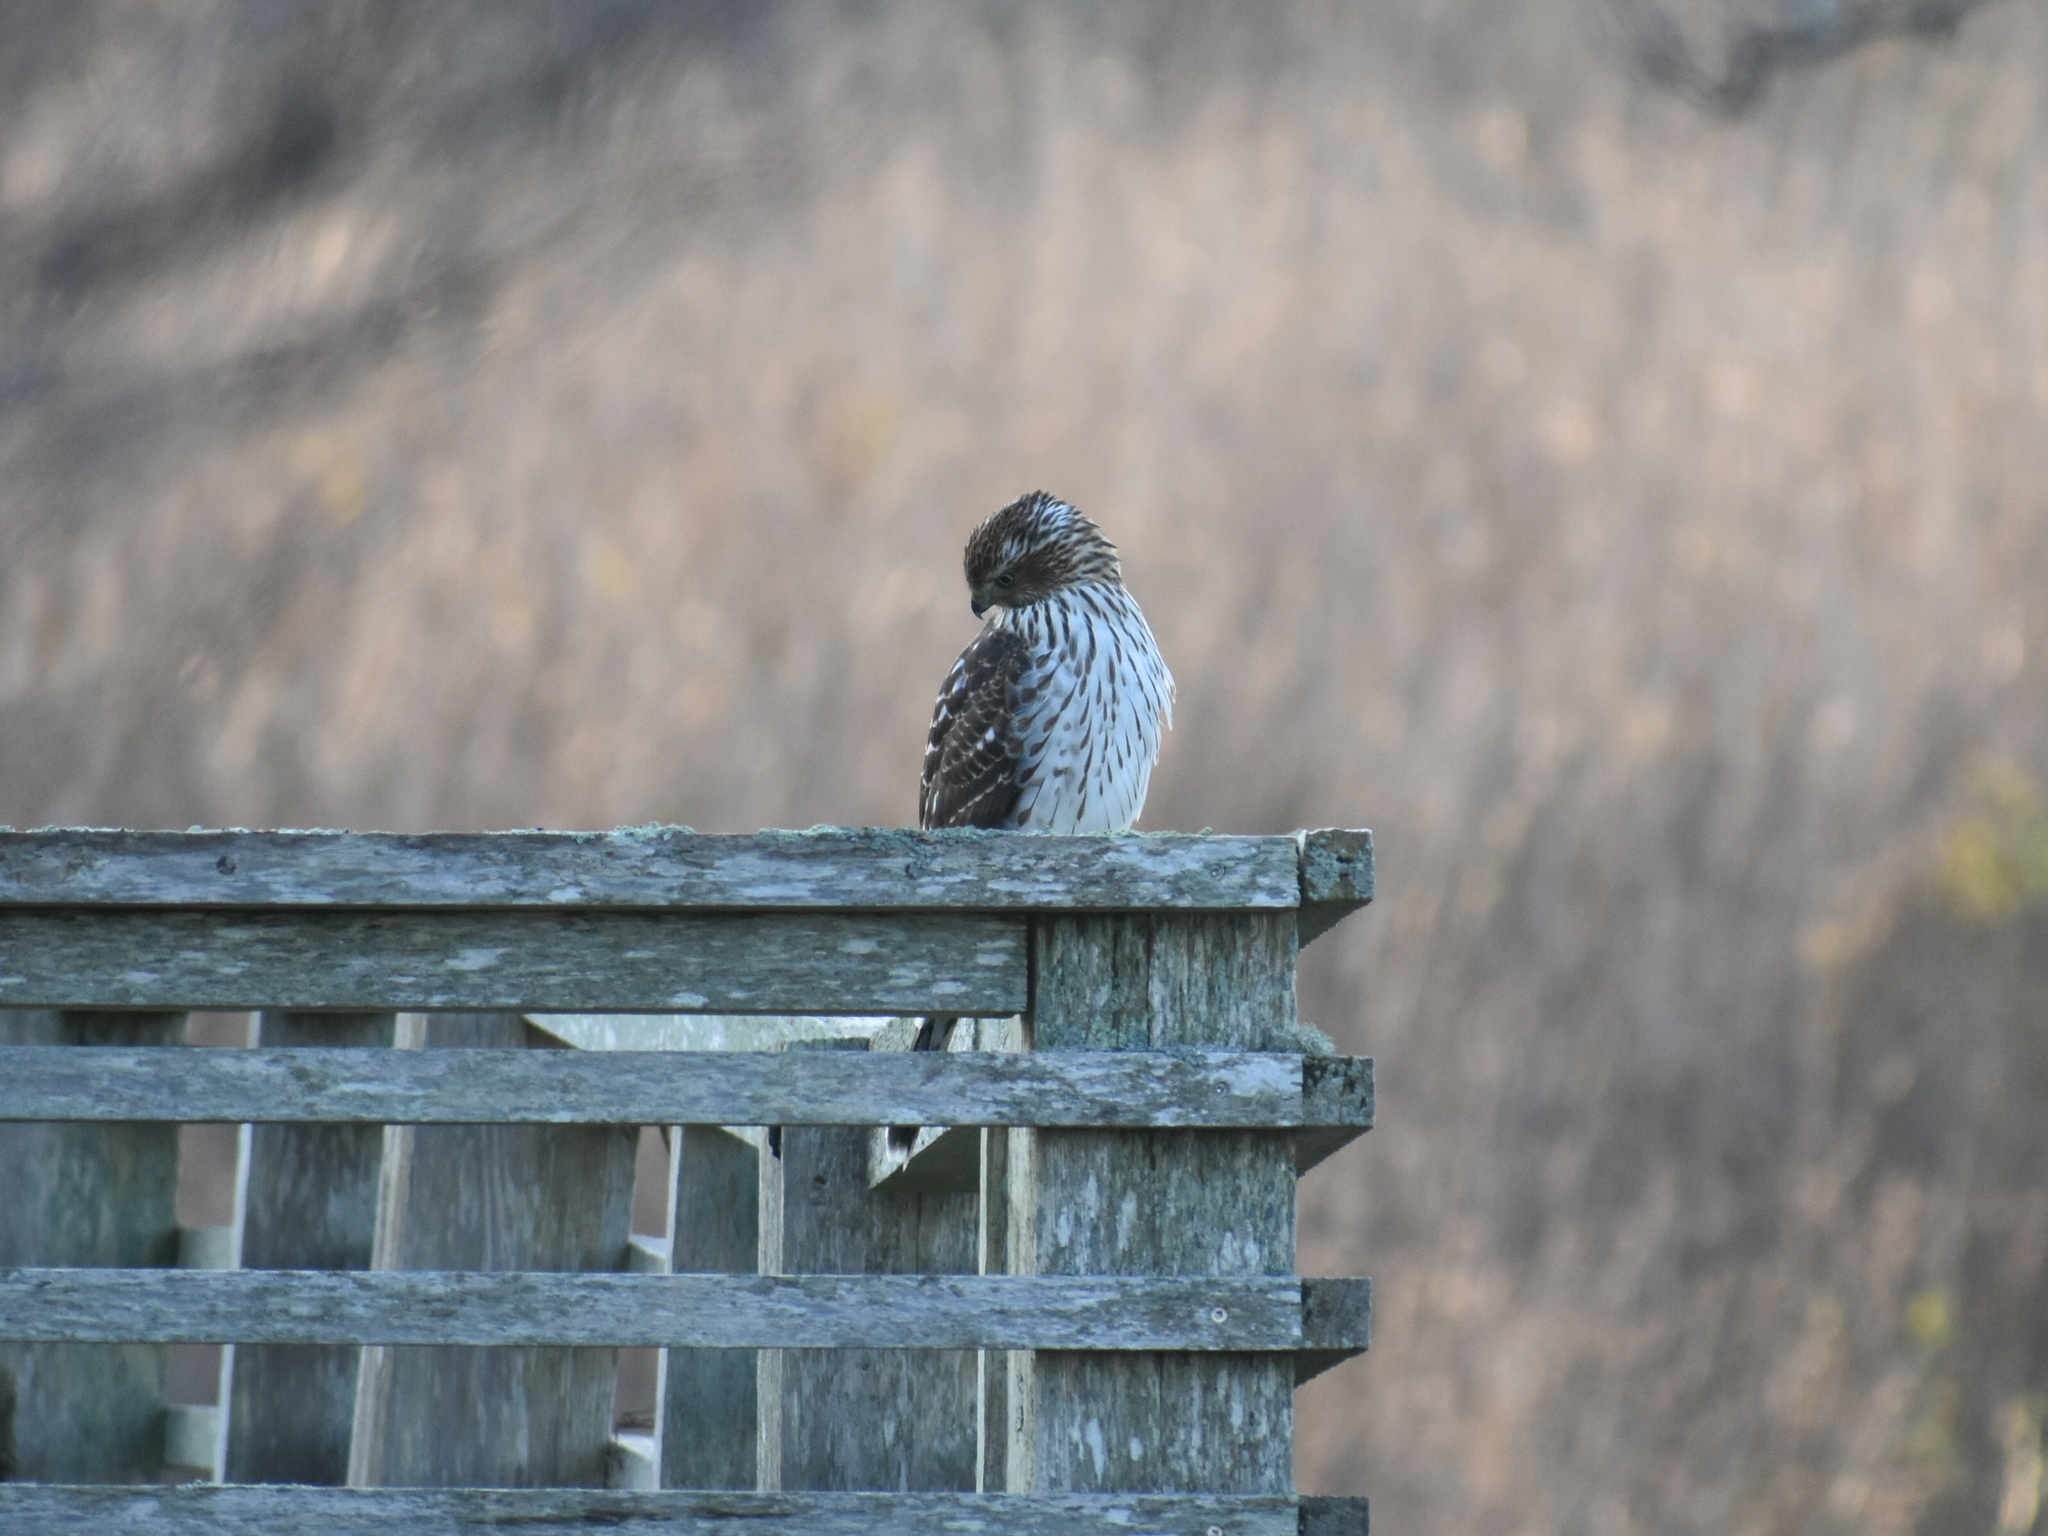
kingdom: Animalia
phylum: Chordata
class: Aves
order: Accipitriformes
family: Accipitridae
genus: Accipiter
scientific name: Accipiter cooperii
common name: Cooper's hawk
